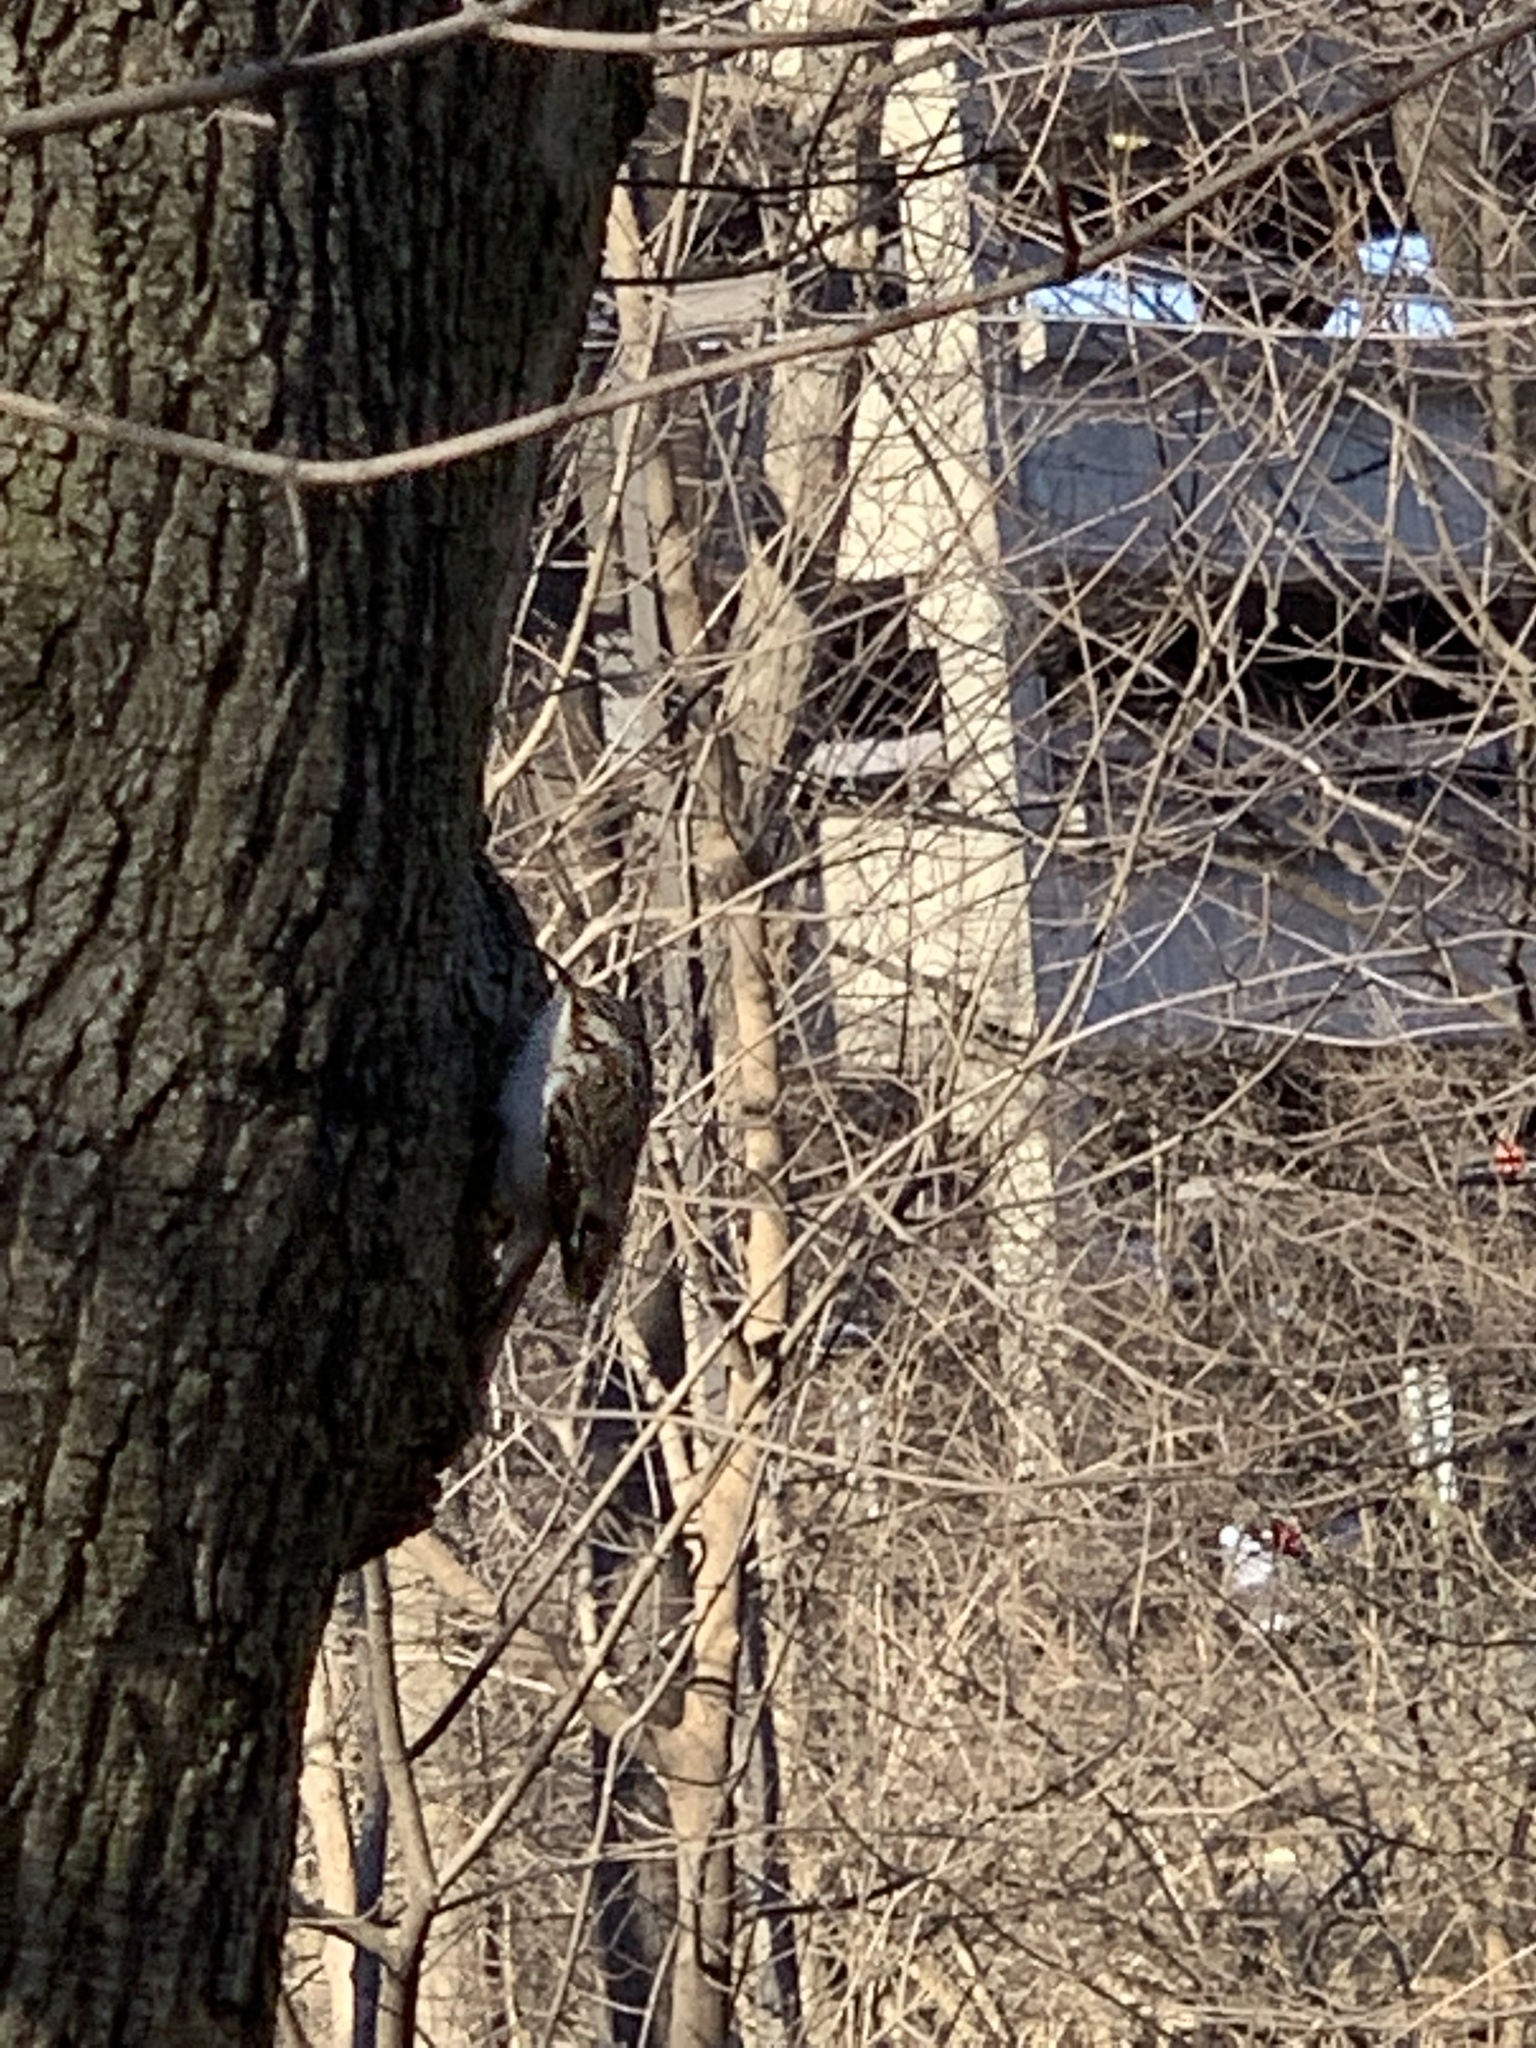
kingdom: Animalia
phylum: Chordata
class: Aves
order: Passeriformes
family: Certhiidae
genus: Certhia
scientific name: Certhia americana
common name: Brown creeper
